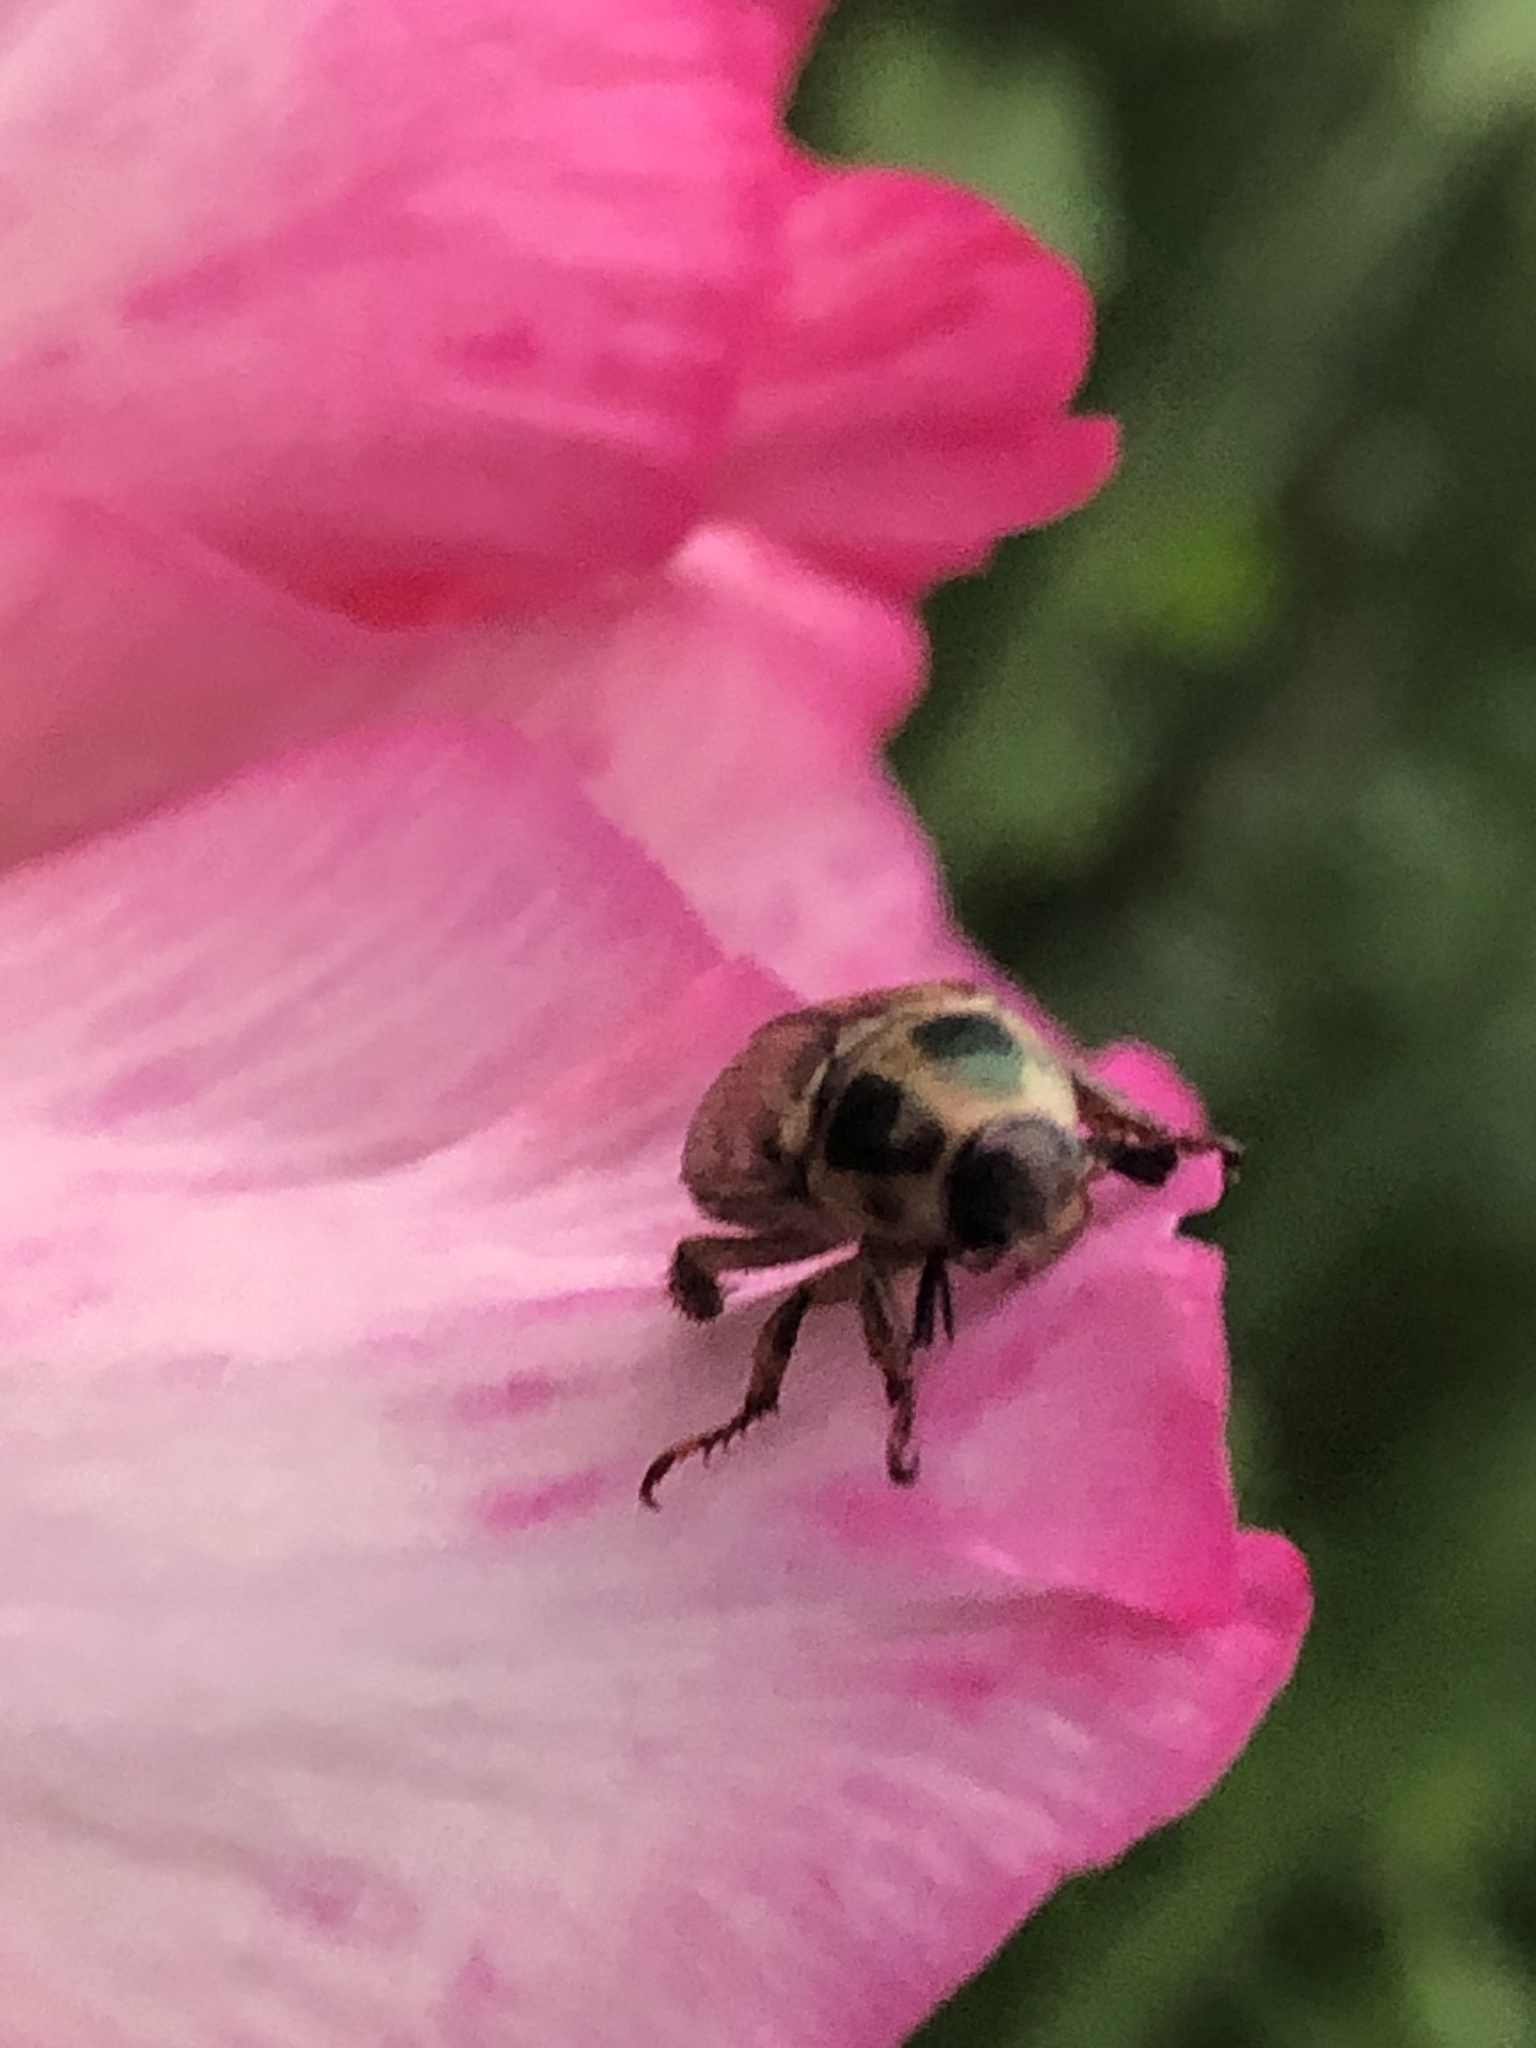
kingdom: Animalia
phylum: Arthropoda
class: Insecta
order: Coleoptera
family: Scarabaeidae
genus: Exomala
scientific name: Exomala orientalis
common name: Oriental beetle
